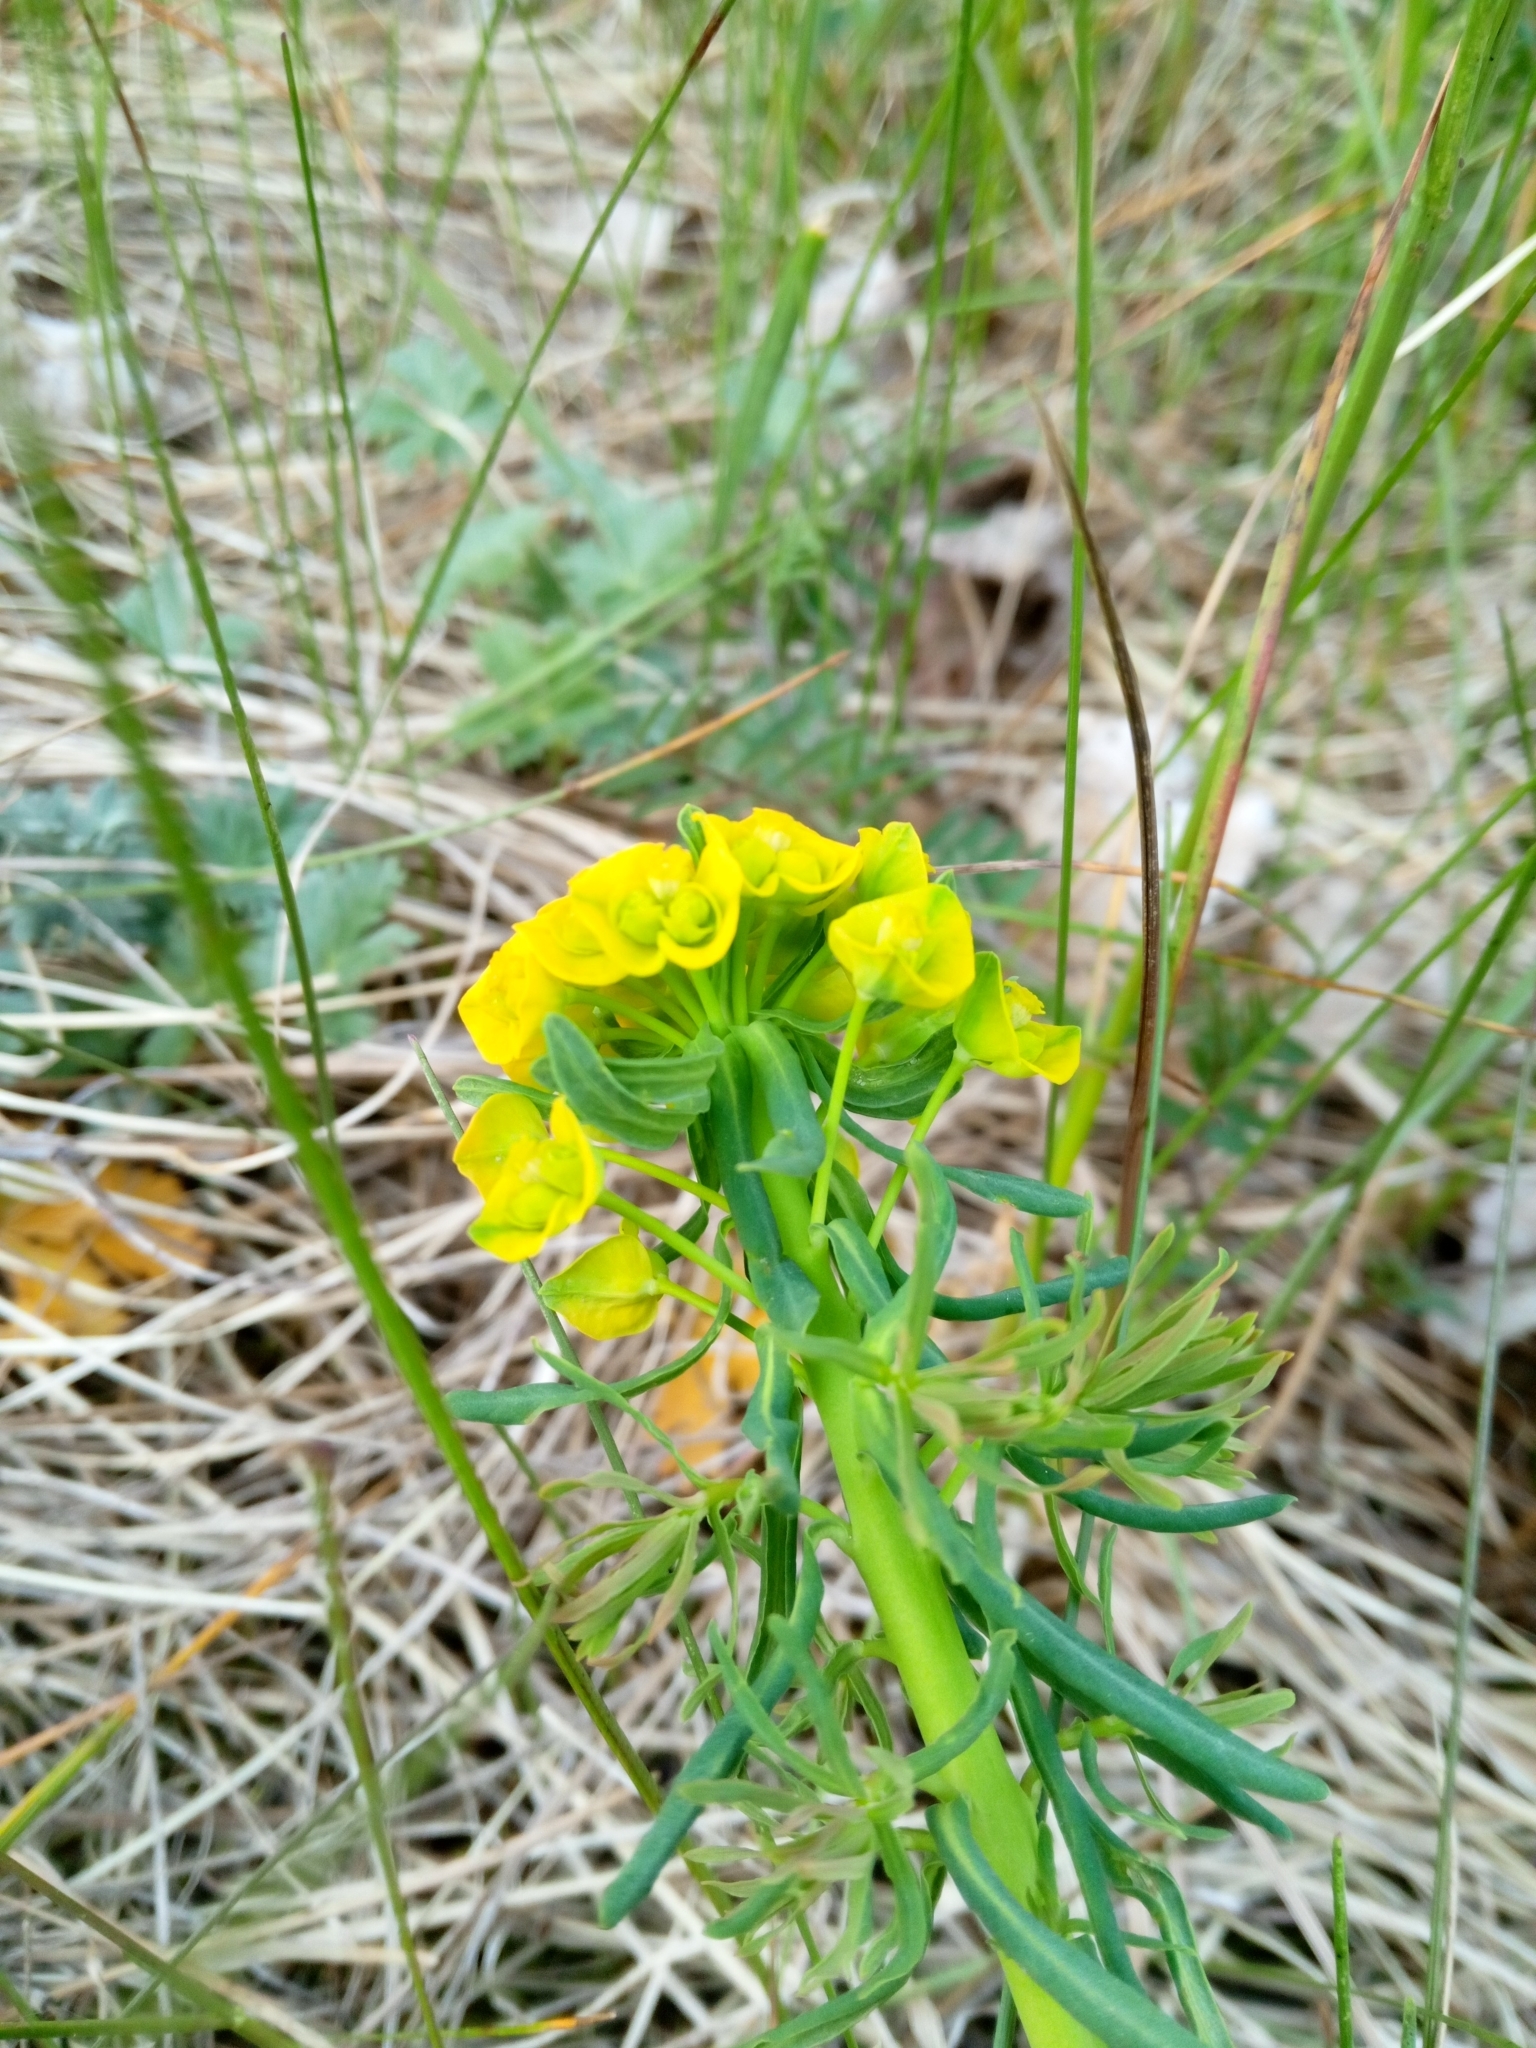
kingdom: Plantae
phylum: Tracheophyta
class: Magnoliopsida
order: Malpighiales
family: Euphorbiaceae
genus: Euphorbia
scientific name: Euphorbia cyparissias
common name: Cypress spurge
